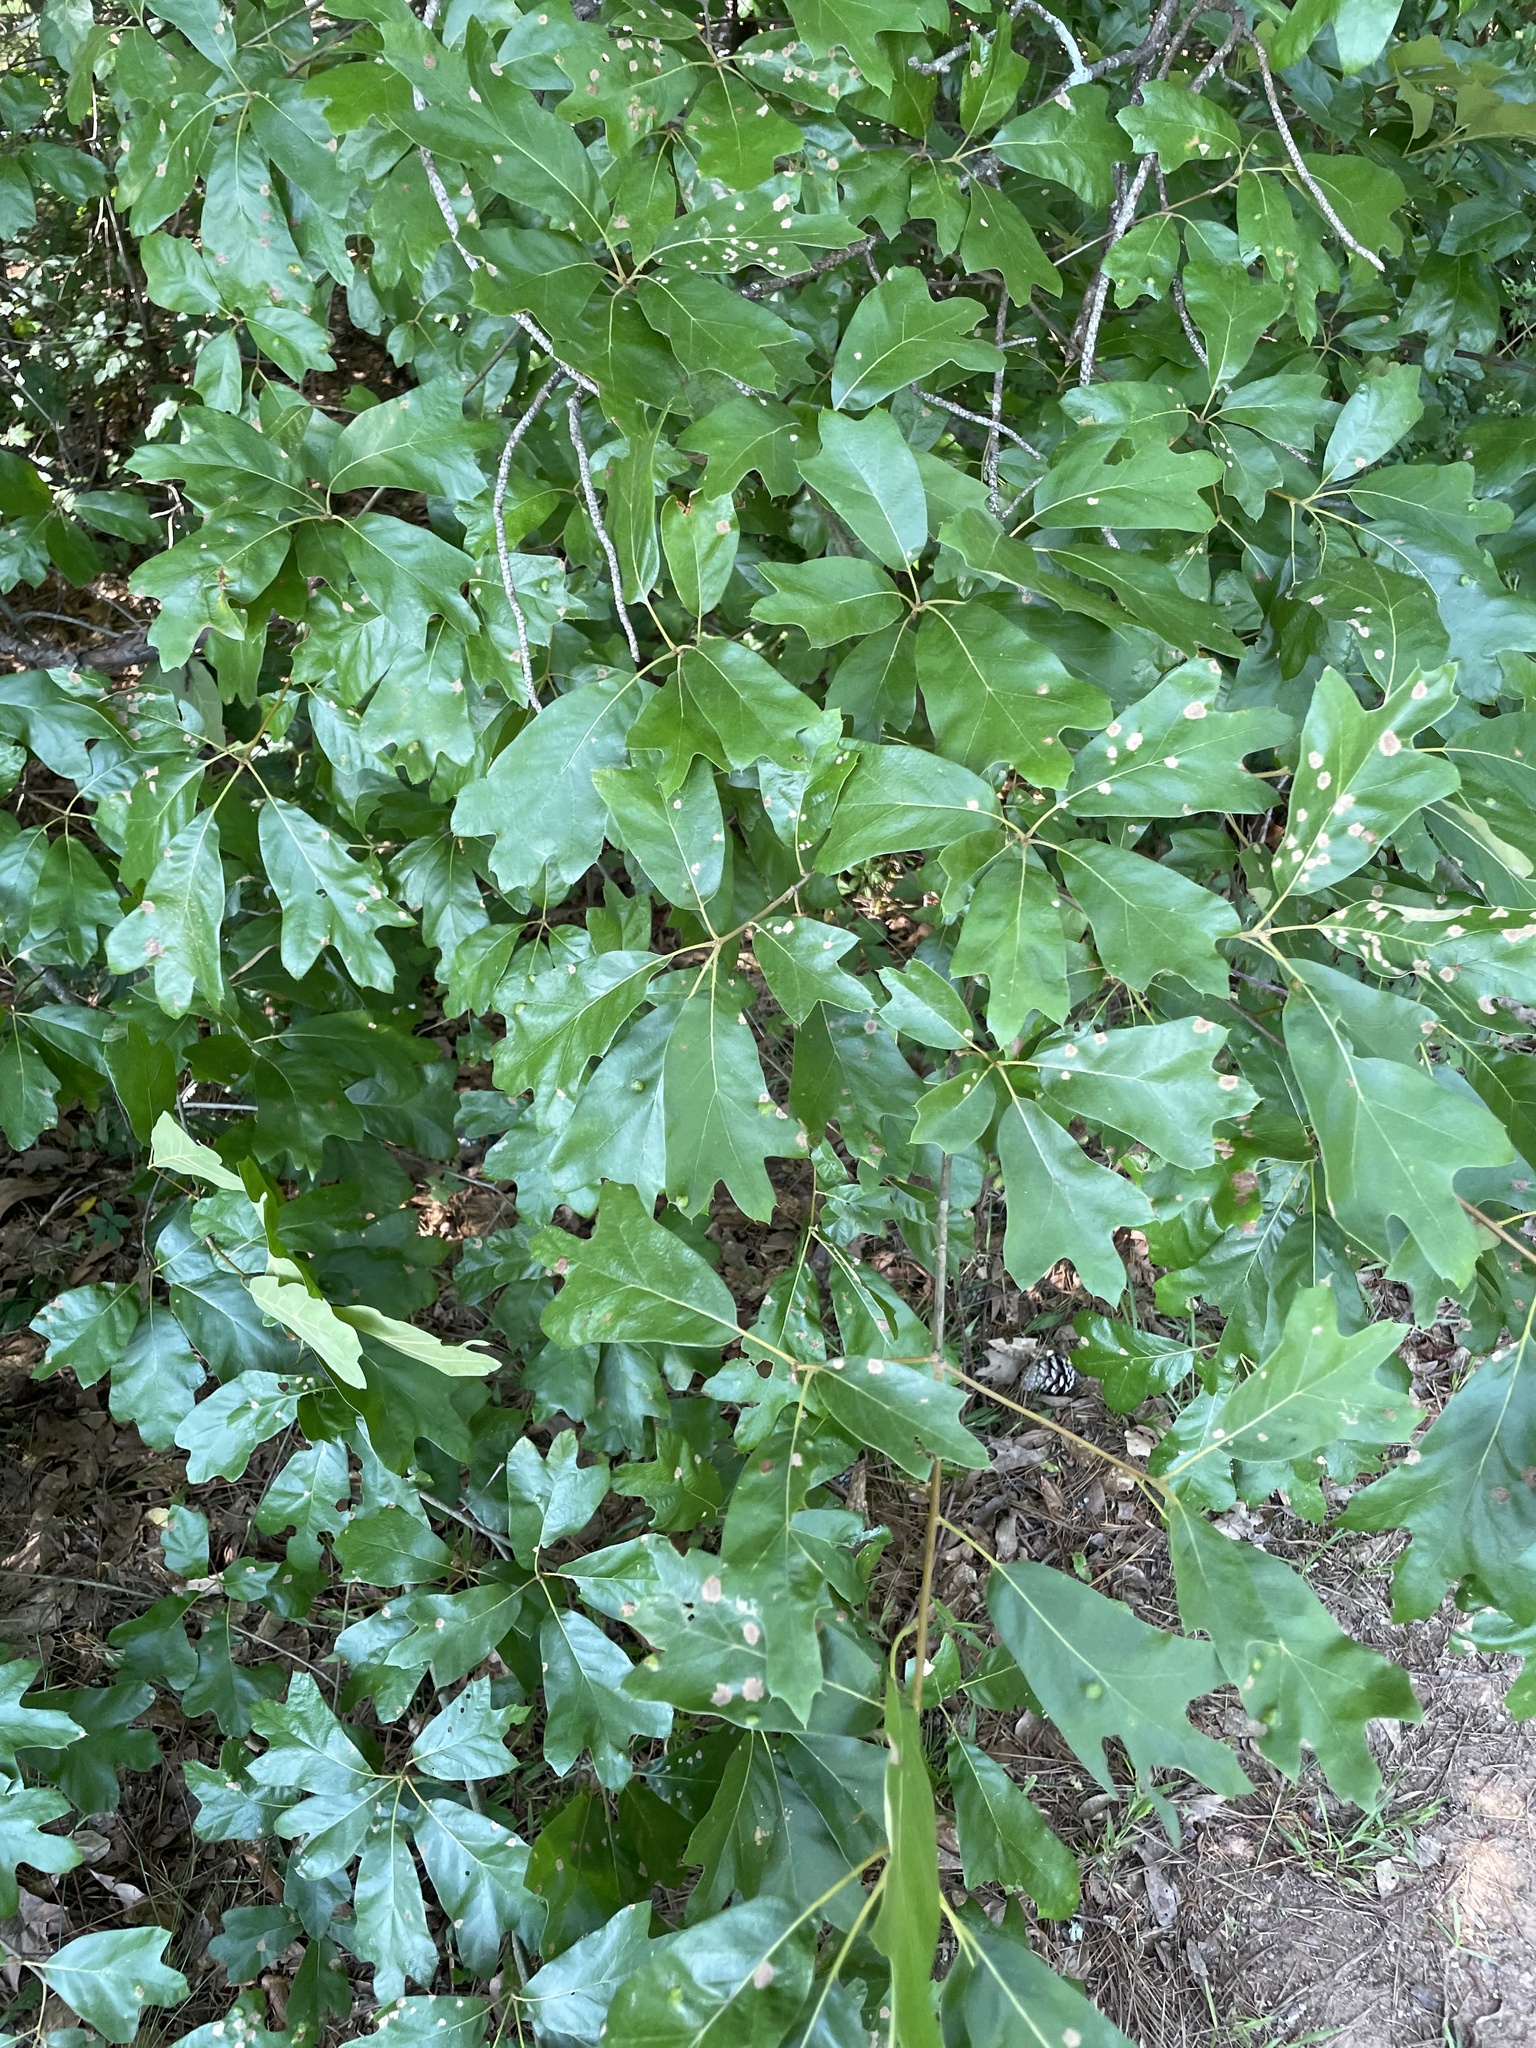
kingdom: Plantae
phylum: Tracheophyta
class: Magnoliopsida
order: Fagales
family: Fagaceae
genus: Quercus
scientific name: Quercus marilandica
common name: Blackjack oak
